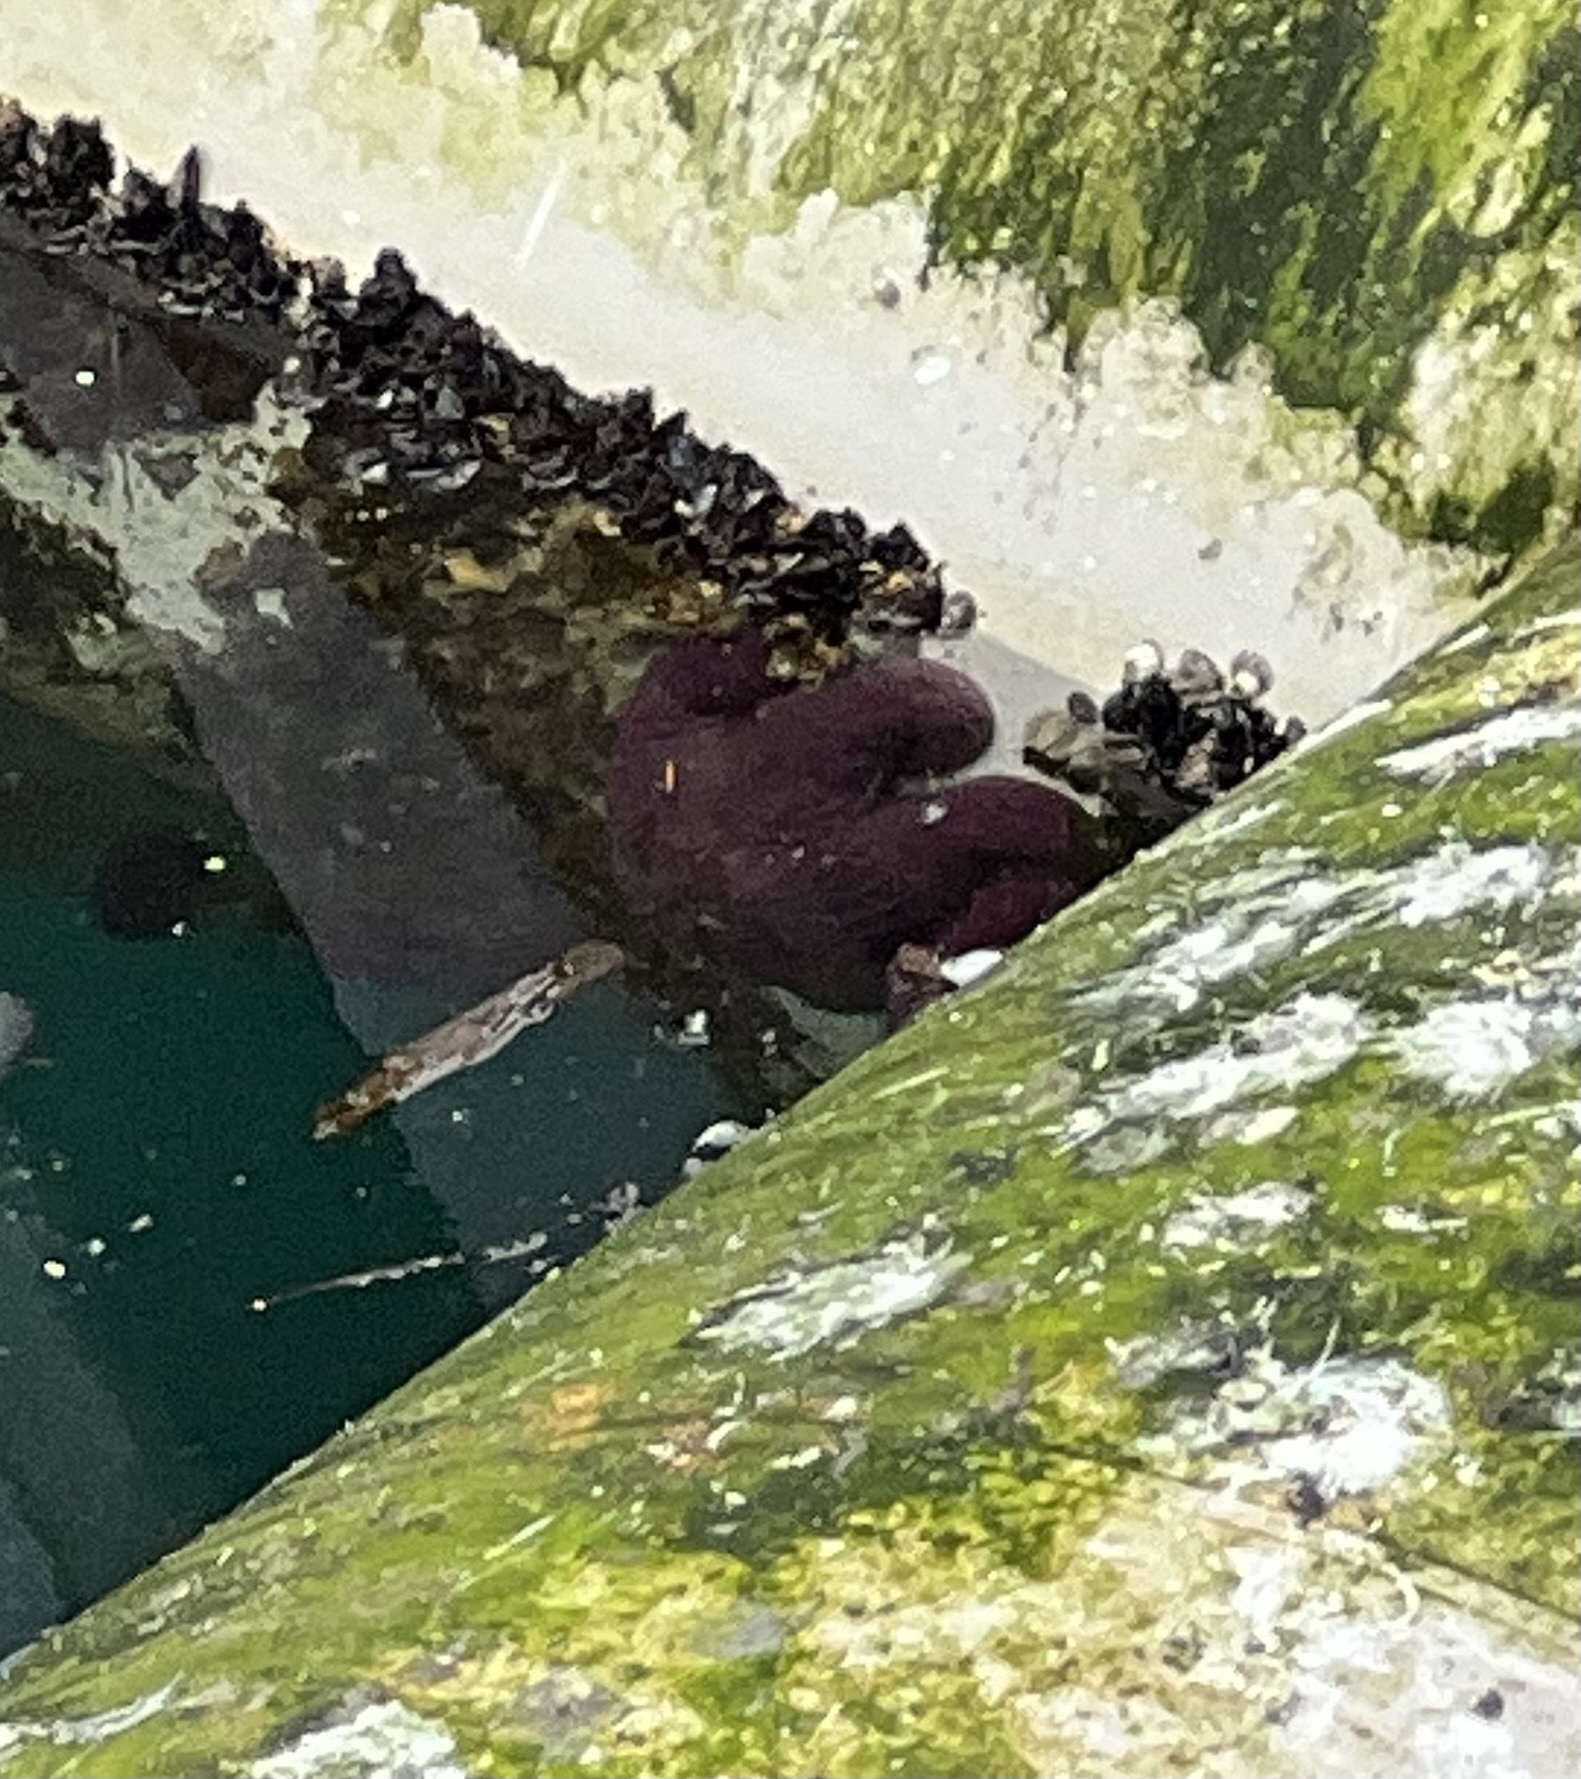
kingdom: Animalia
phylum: Echinodermata
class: Asteroidea
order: Forcipulatida
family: Asteriidae
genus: Pisaster
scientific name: Pisaster ochraceus
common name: Ochre stars
